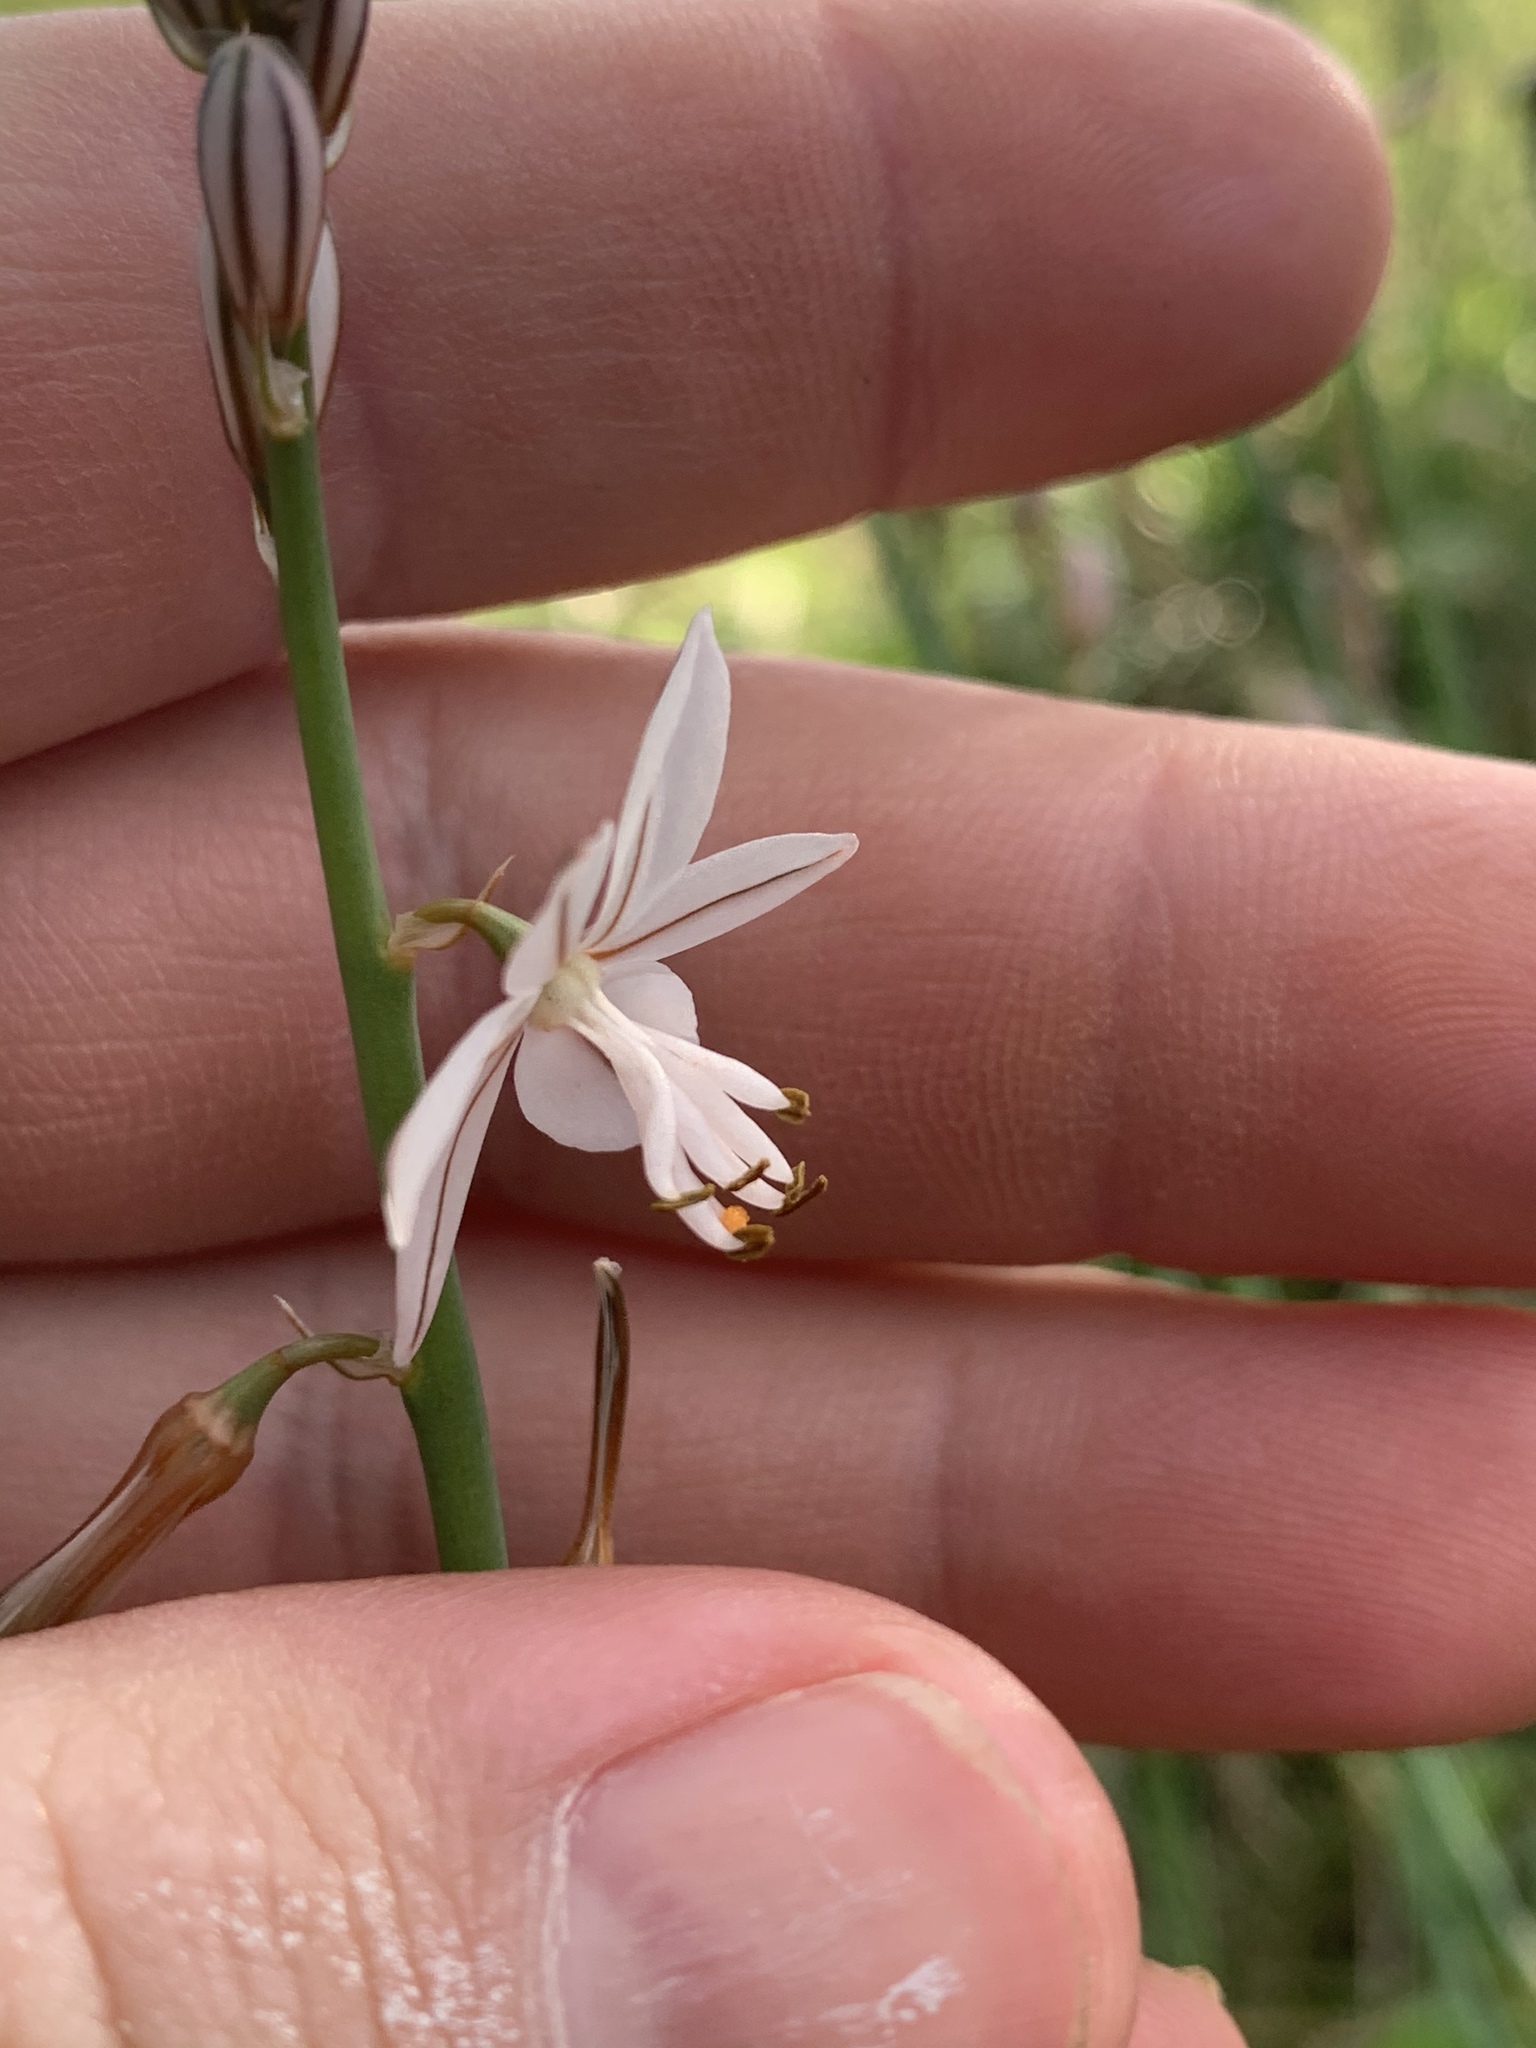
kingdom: Plantae
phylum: Tracheophyta
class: Liliopsida
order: Asparagales
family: Asphodelaceae
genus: Asphodelus
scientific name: Asphodelus fistulosus
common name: Onionweed
